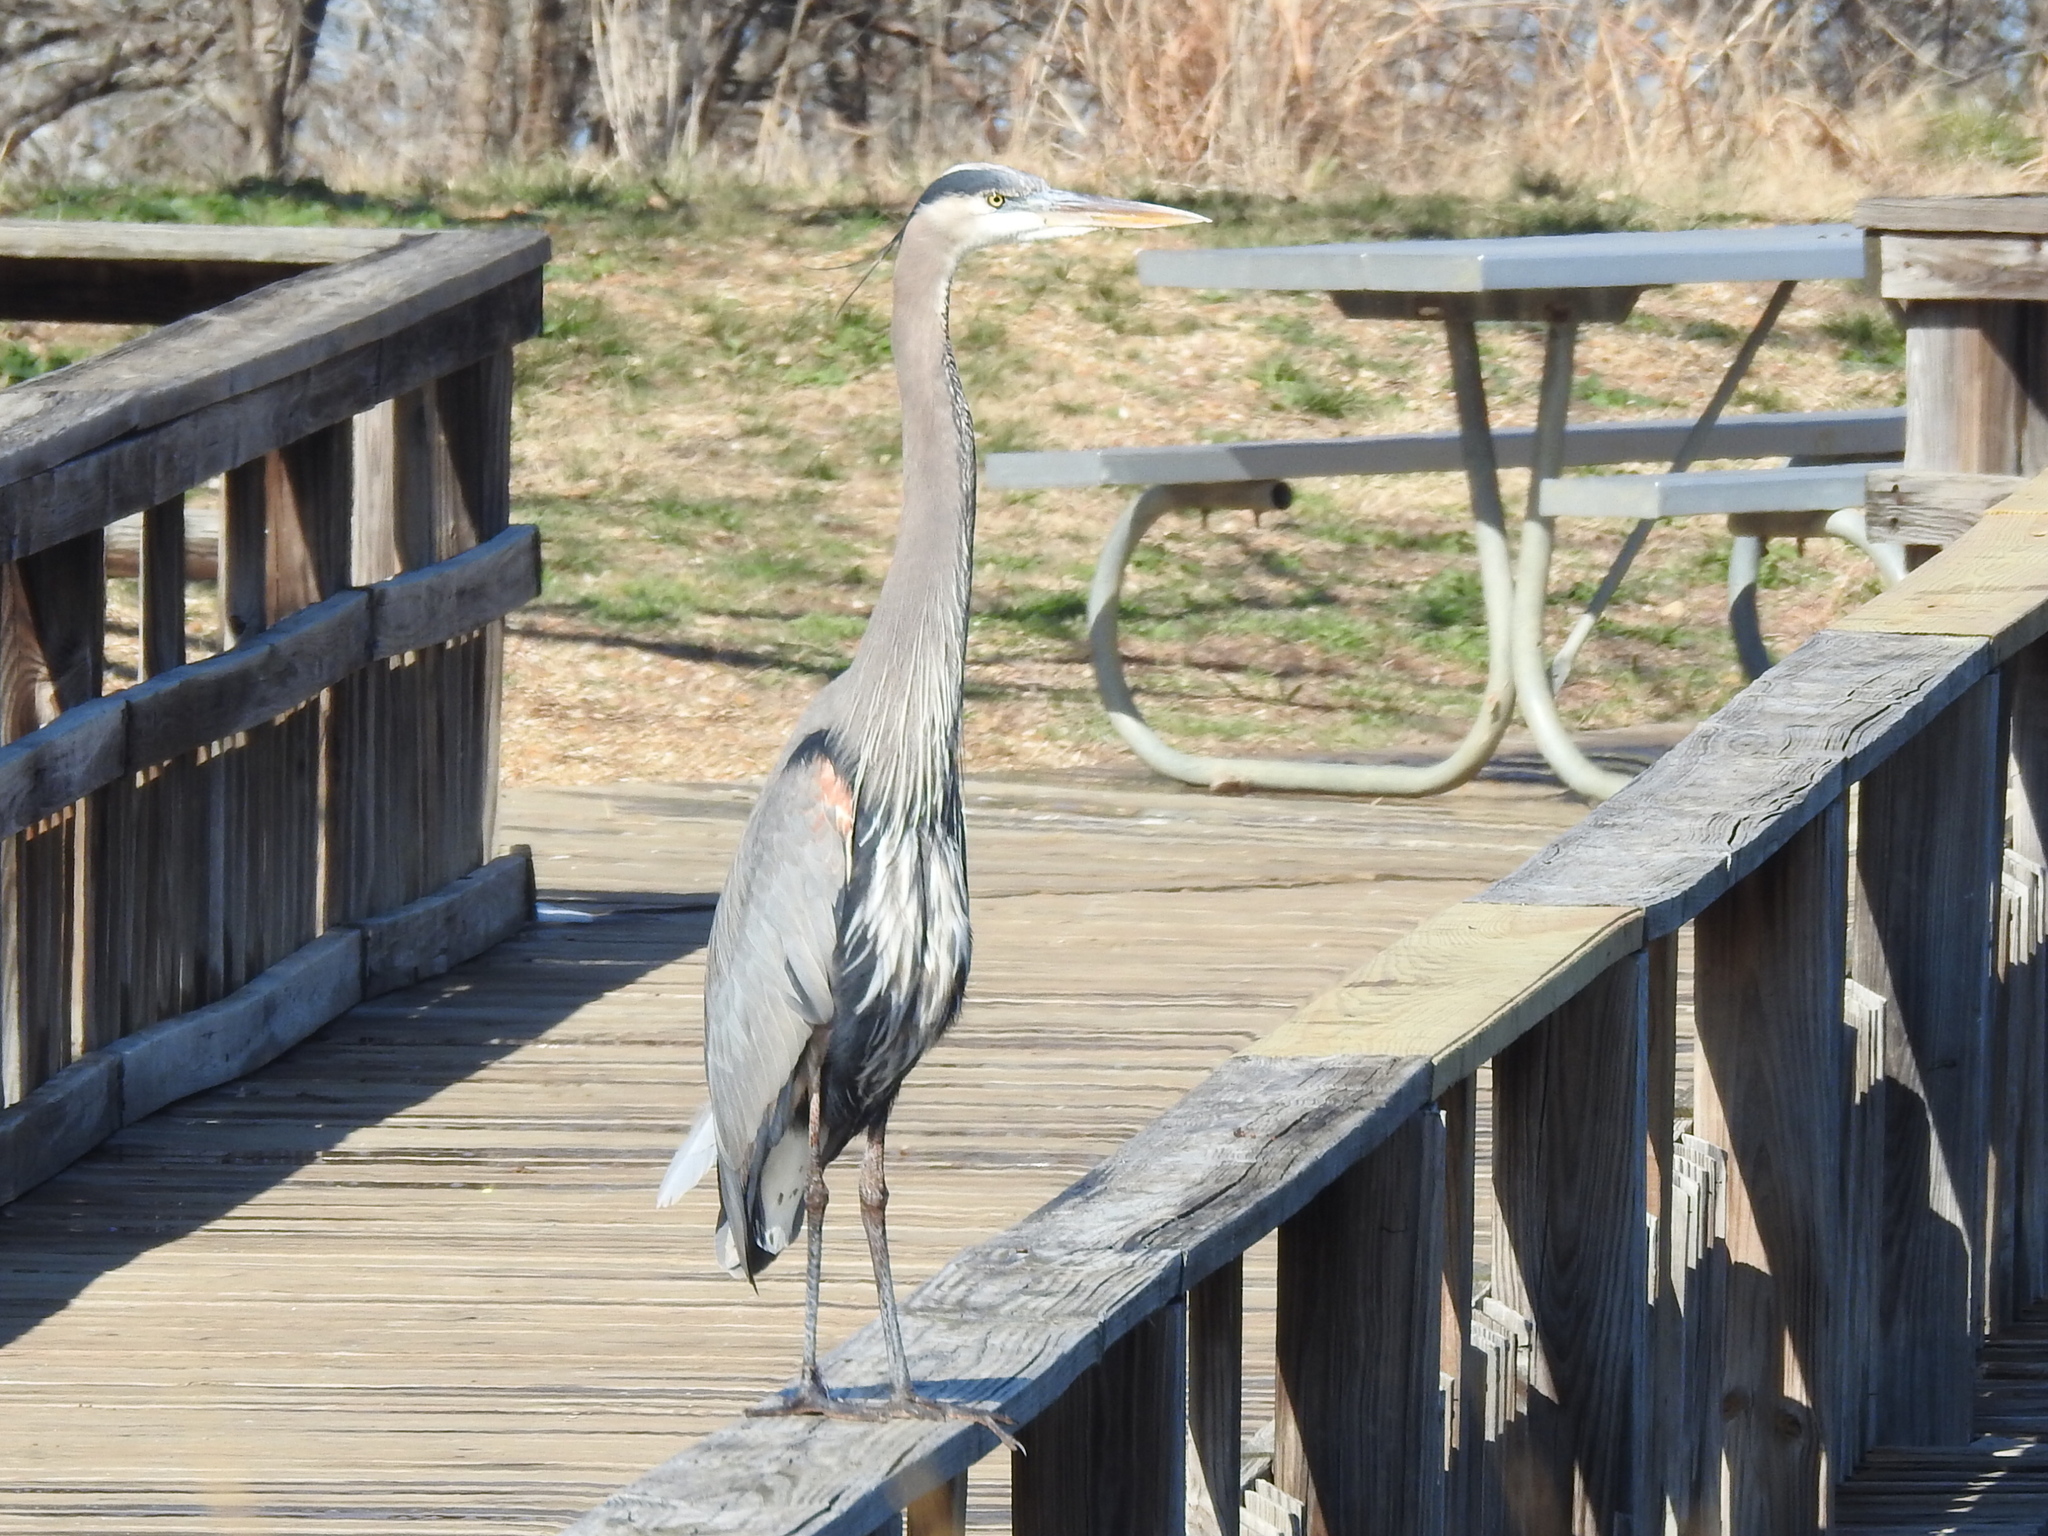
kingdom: Animalia
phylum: Chordata
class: Aves
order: Pelecaniformes
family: Ardeidae
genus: Ardea
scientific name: Ardea herodias
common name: Great blue heron
